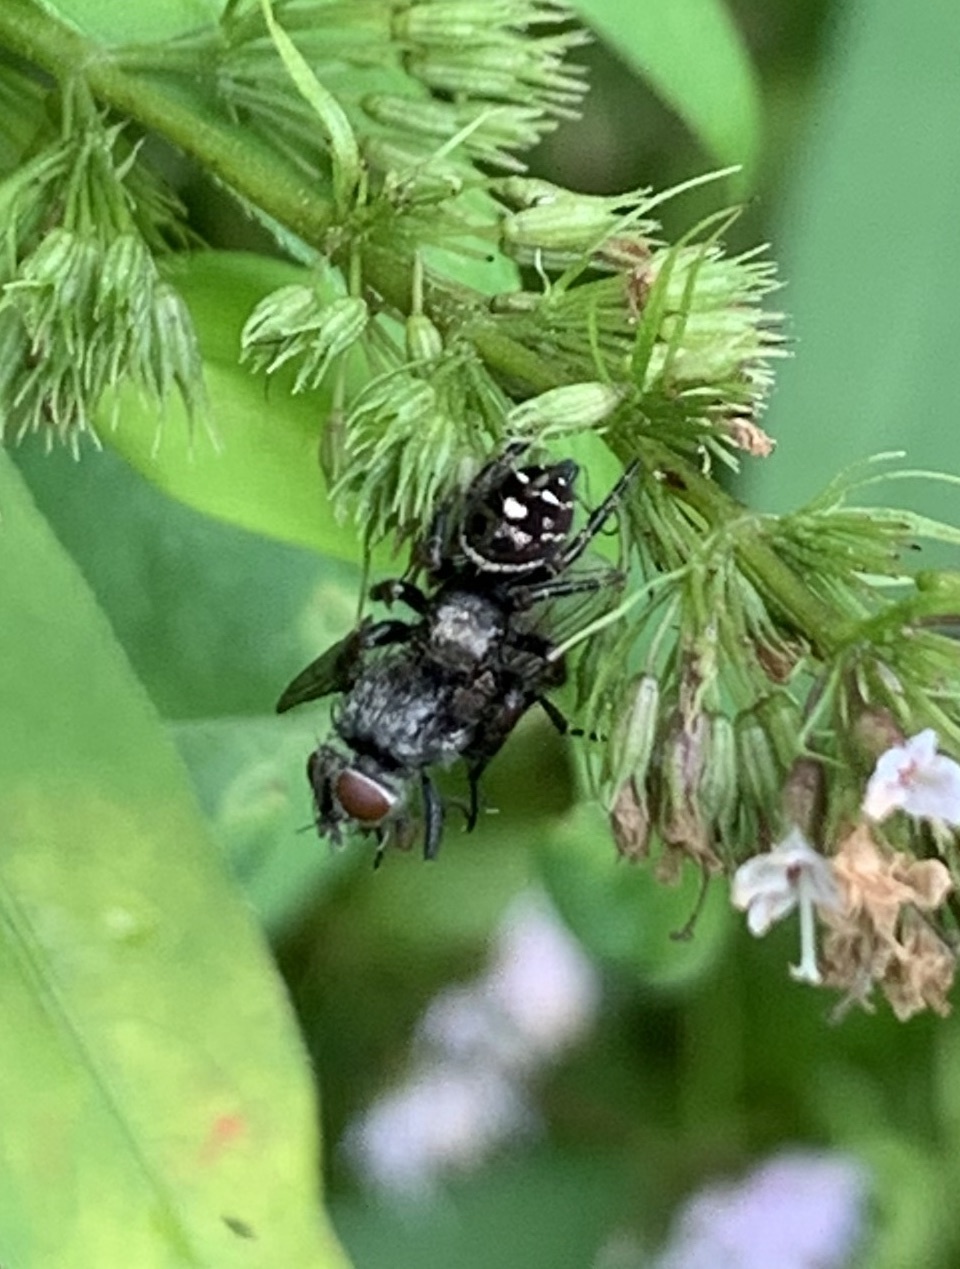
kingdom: Animalia
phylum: Arthropoda
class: Arachnida
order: Araneae
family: Salticidae
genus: Phidippus
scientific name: Phidippus audax
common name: Bold jumper
